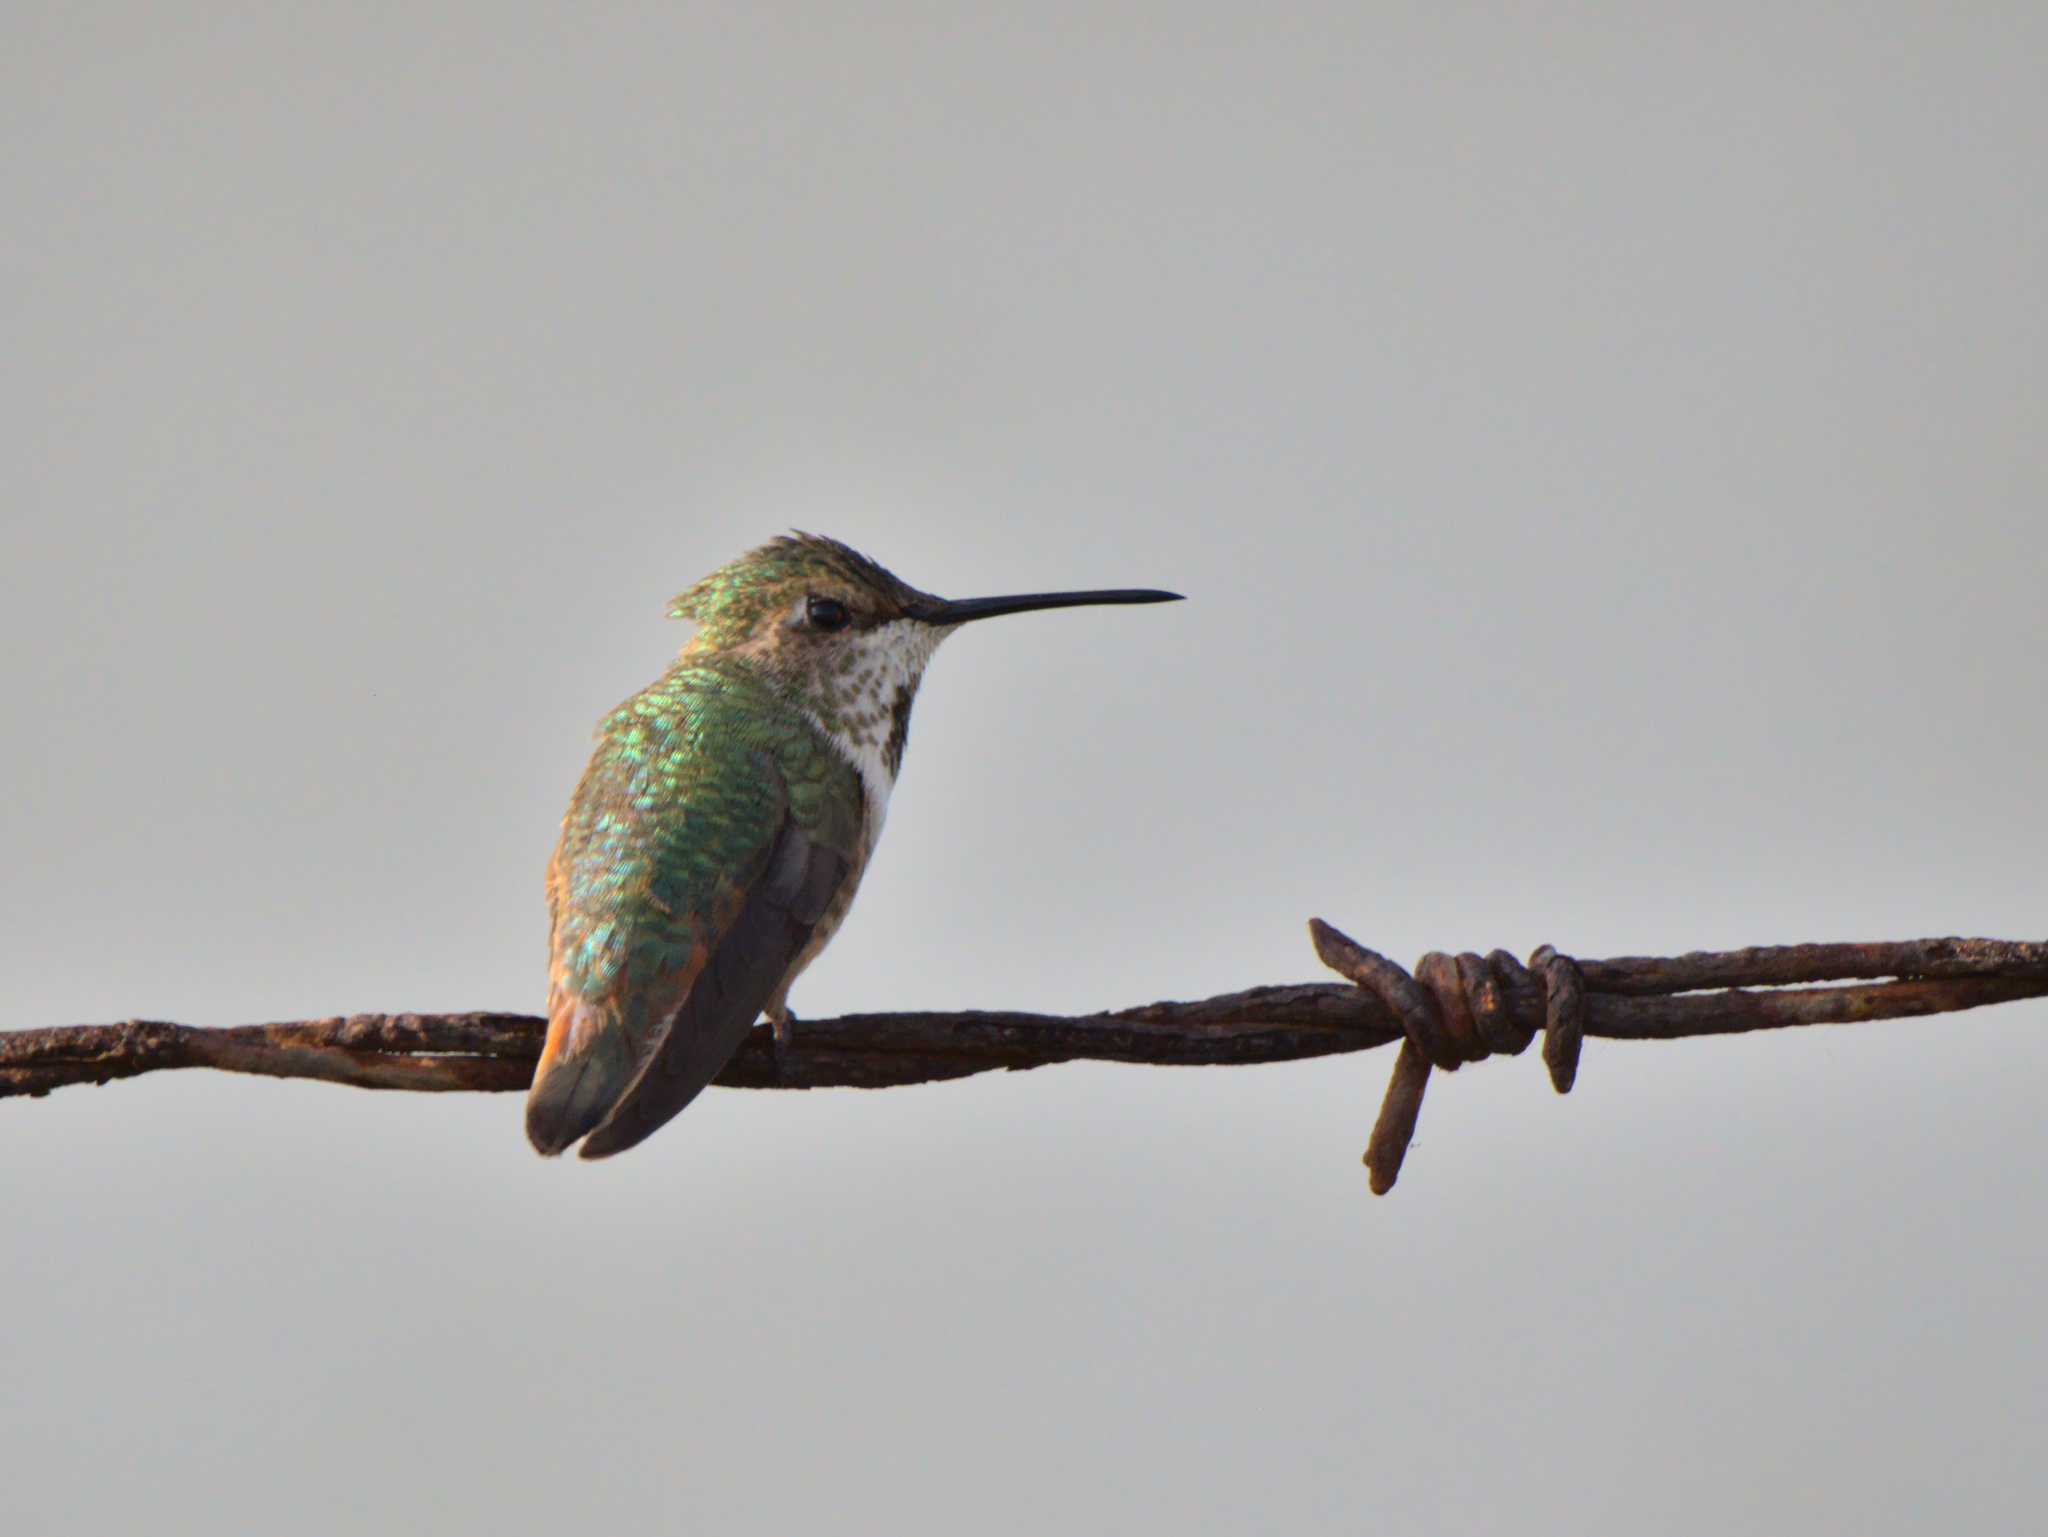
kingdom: Animalia
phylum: Chordata
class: Aves
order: Apodiformes
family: Trochilidae
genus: Selasphorus
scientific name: Selasphorus
